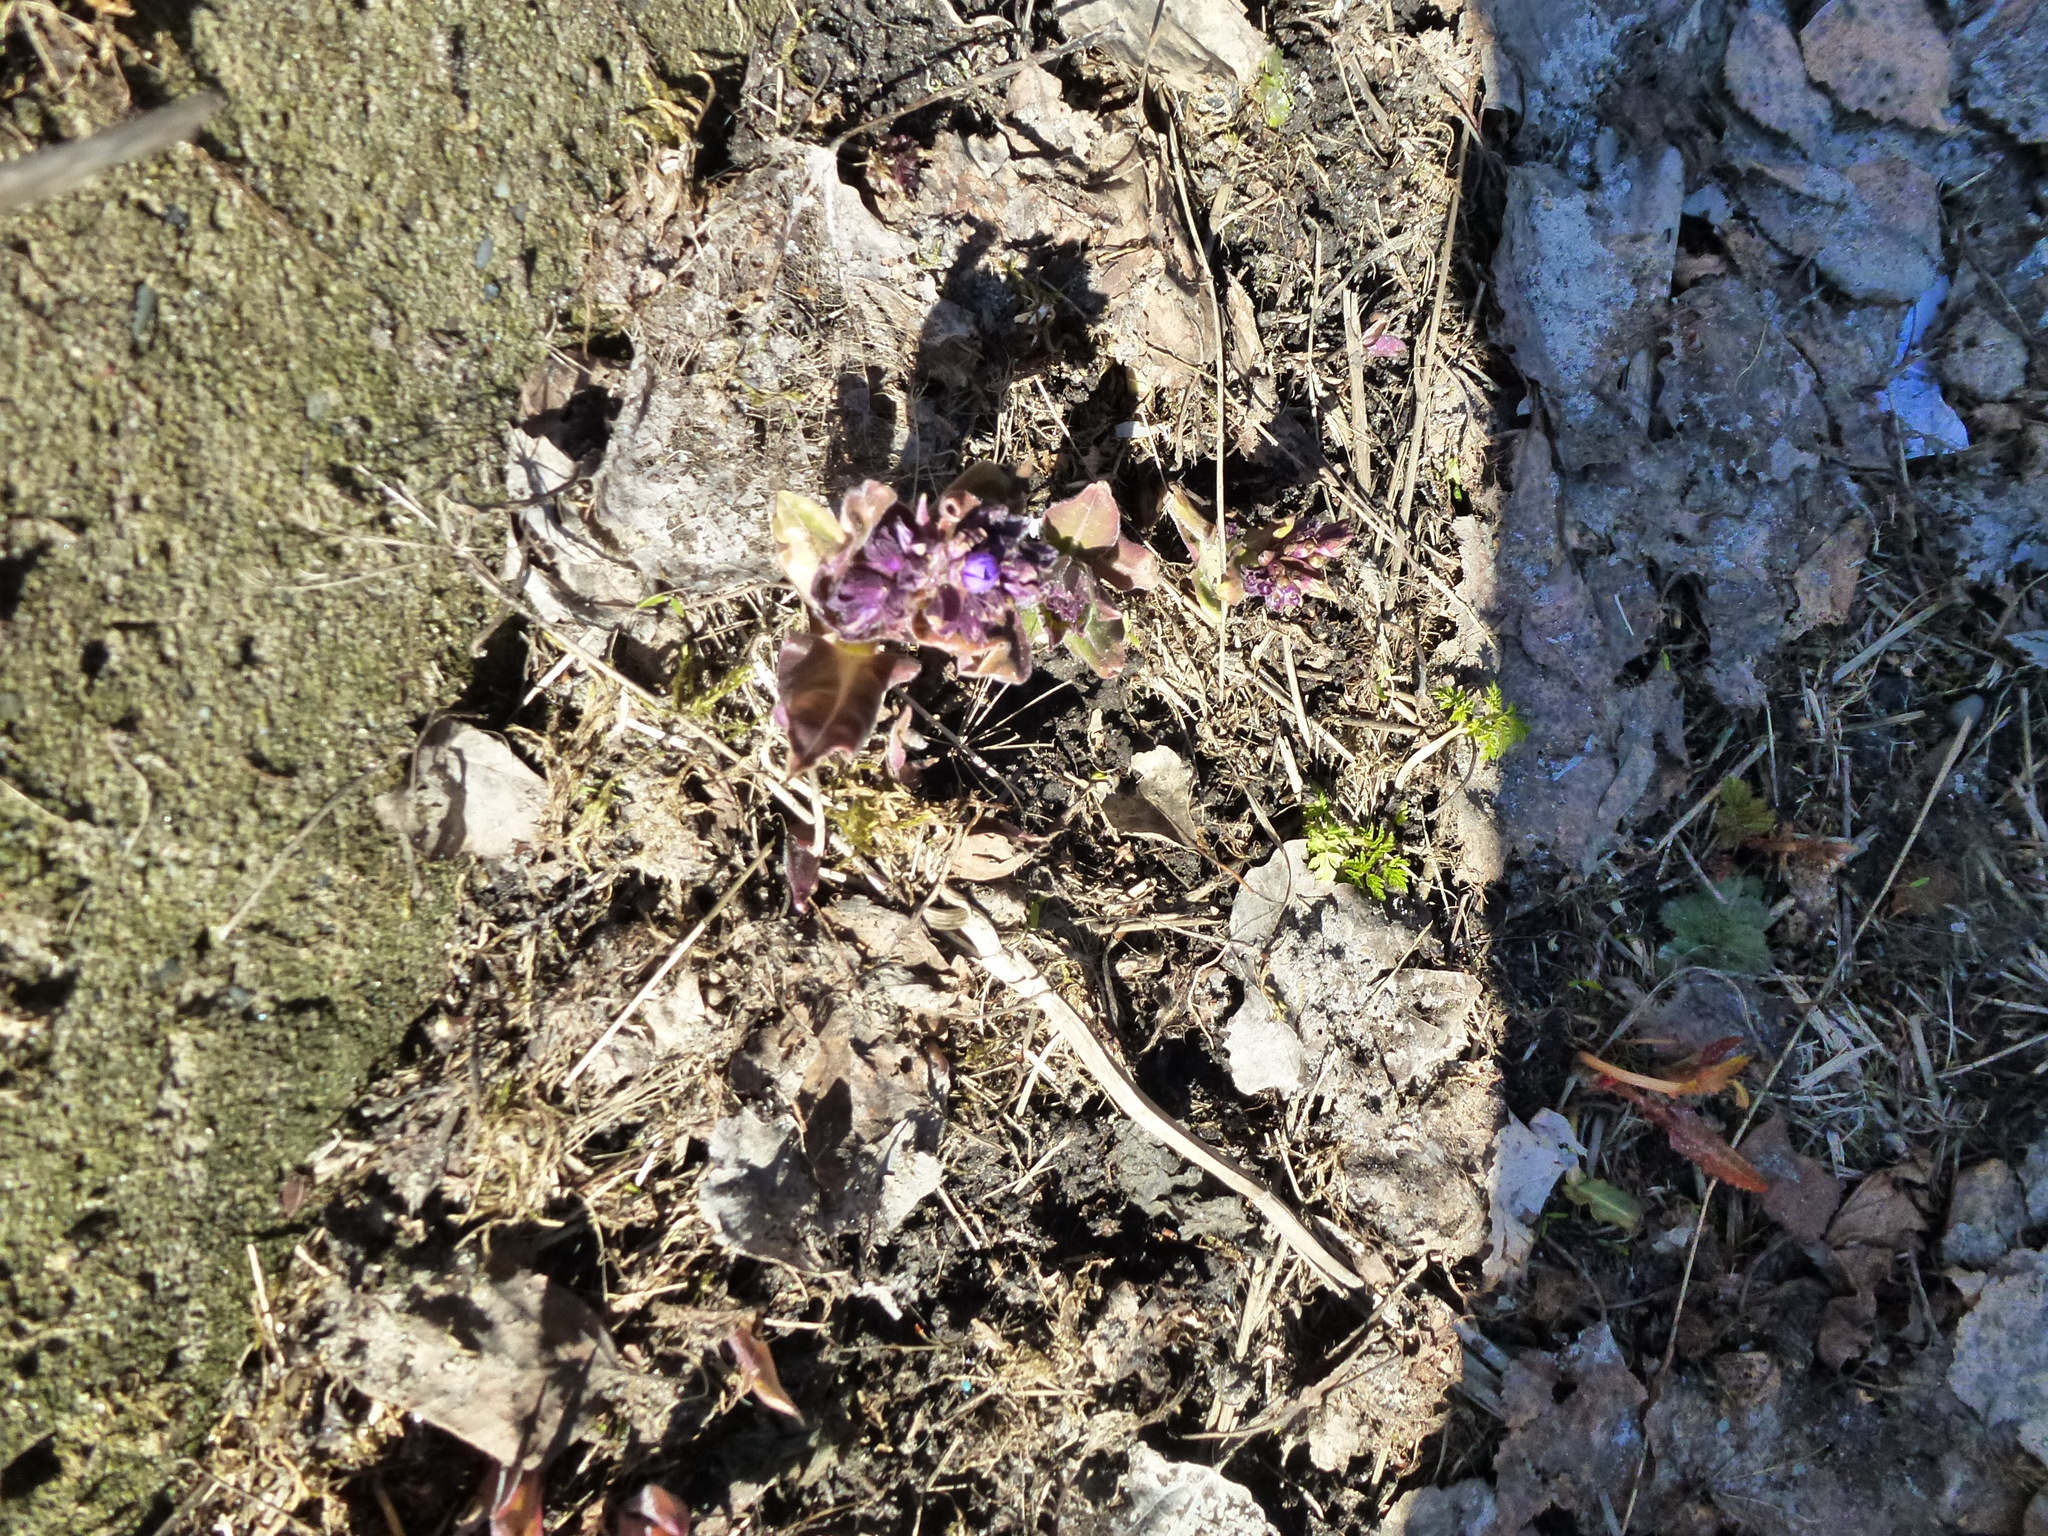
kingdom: Plantae
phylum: Tracheophyta
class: Magnoliopsida
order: Boraginales
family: Boraginaceae
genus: Pulmonaria
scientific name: Pulmonaria mollis
